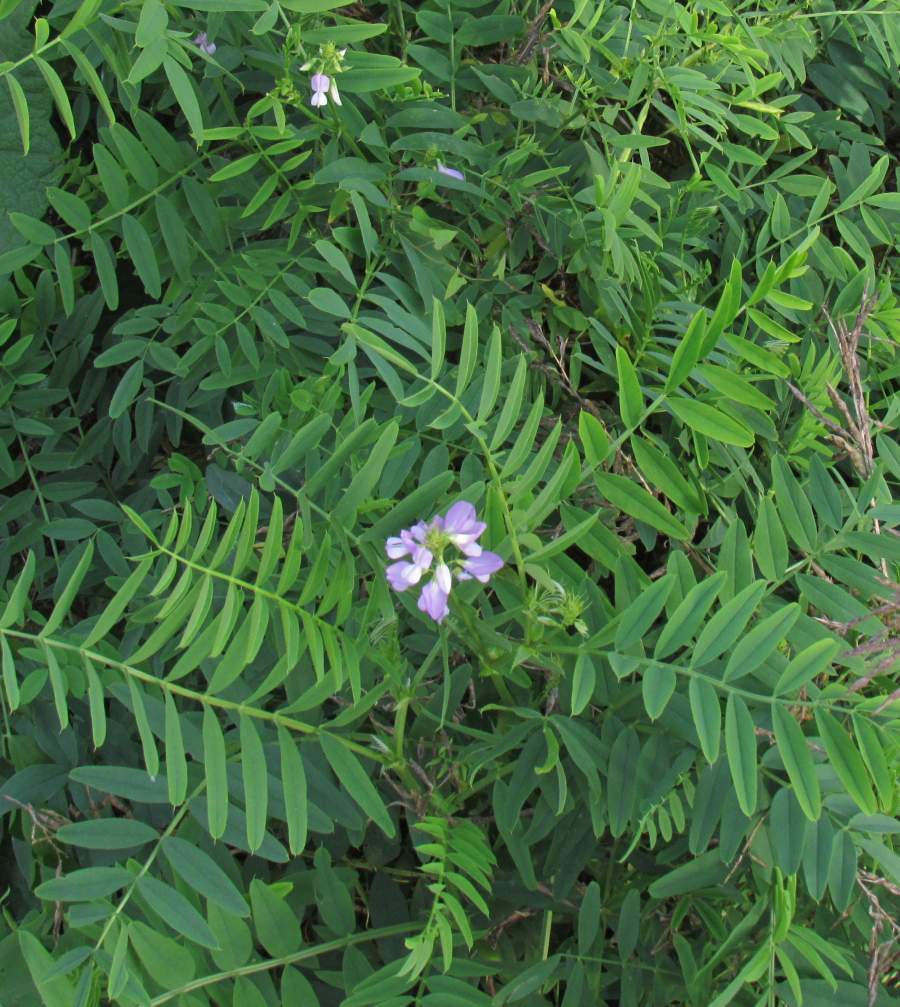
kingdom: Plantae
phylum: Tracheophyta
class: Magnoliopsida
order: Fabales
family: Fabaceae
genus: Galega
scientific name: Galega officinalis
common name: Goat's-rue
